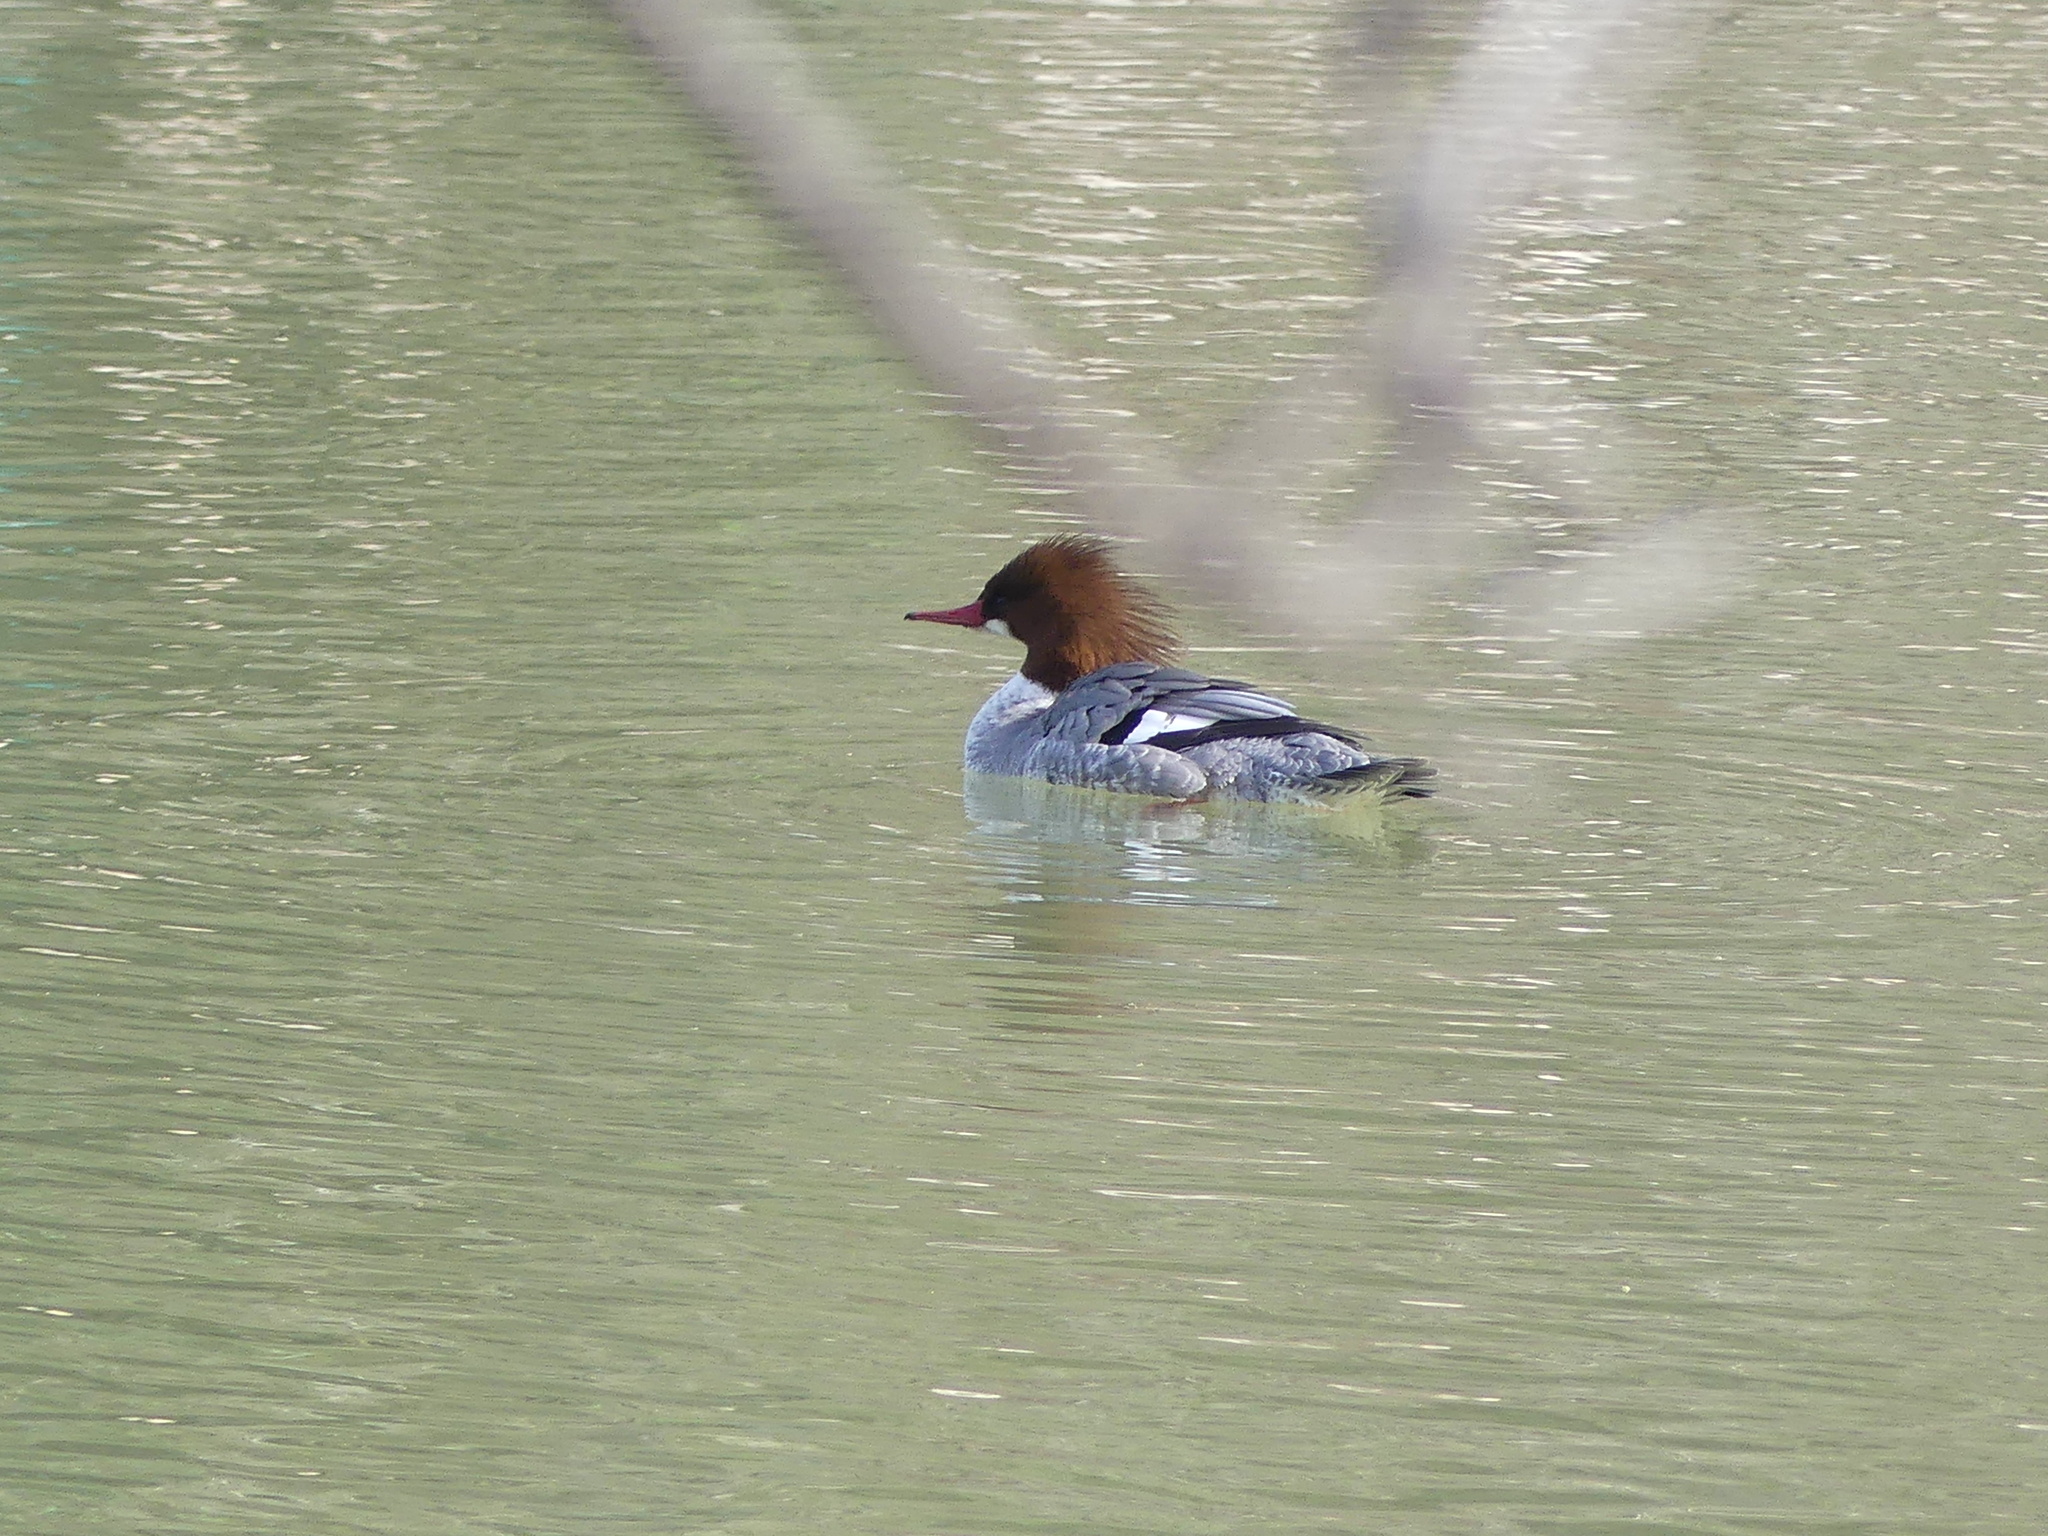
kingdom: Animalia
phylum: Chordata
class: Aves
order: Anseriformes
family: Anatidae
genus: Mergus
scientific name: Mergus merganser
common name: Common merganser
